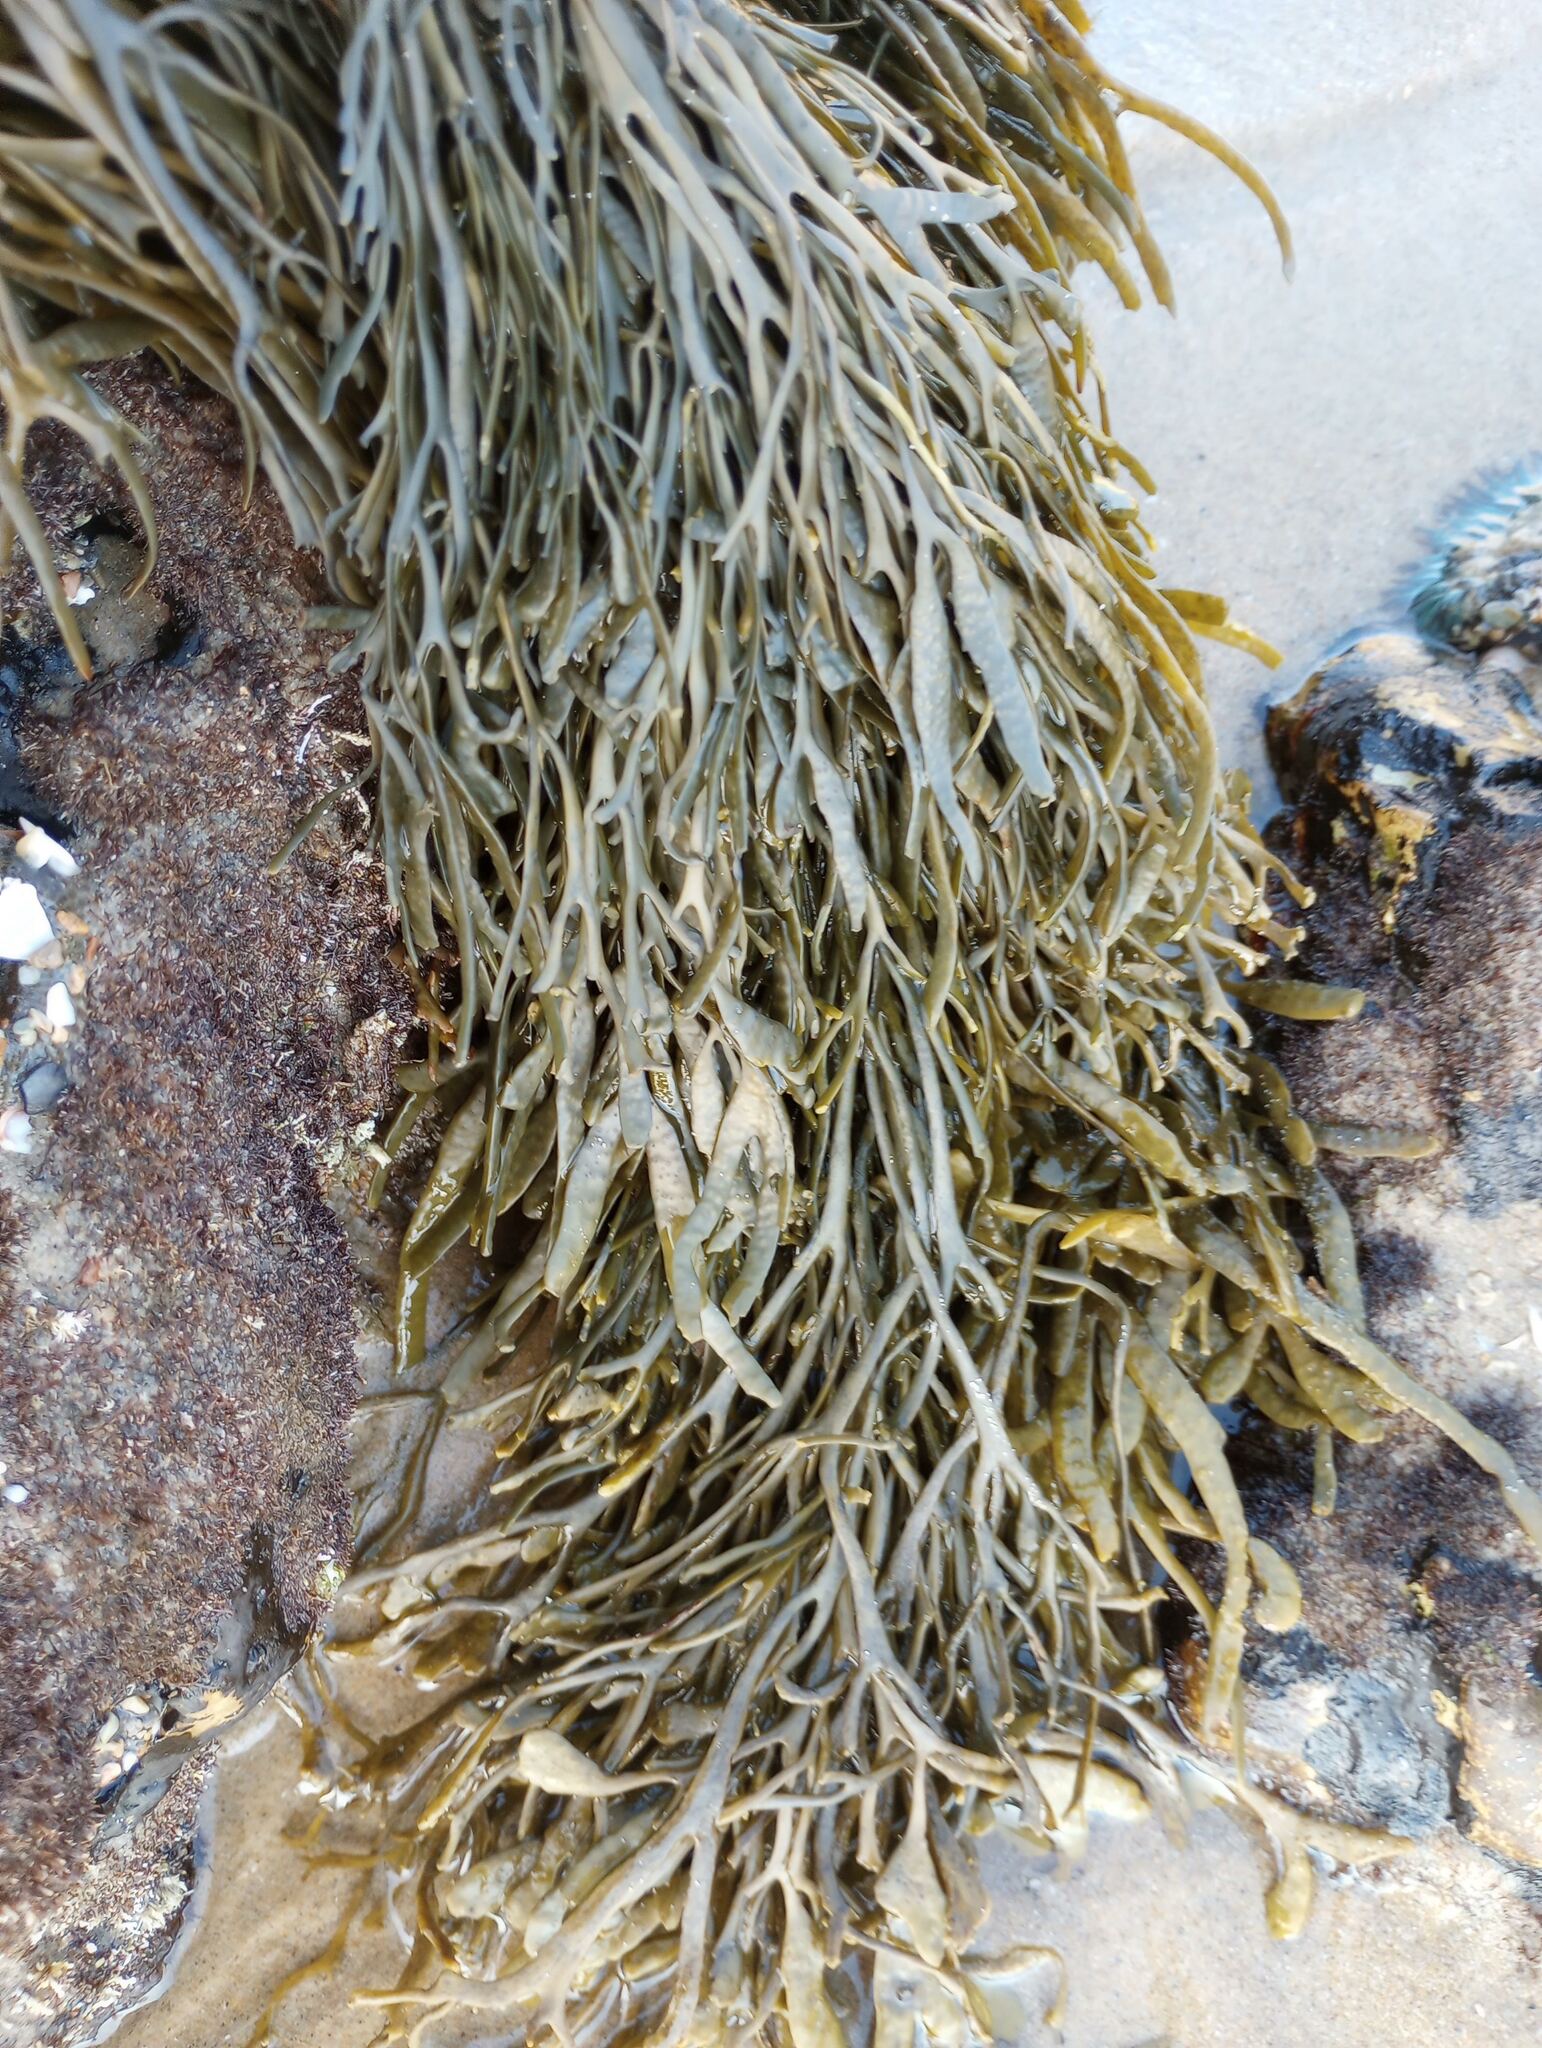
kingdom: Chromista
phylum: Ochrophyta
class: Phaeophyceae
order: Fucales
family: Fucaceae
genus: Silvetia
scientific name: Silvetia
